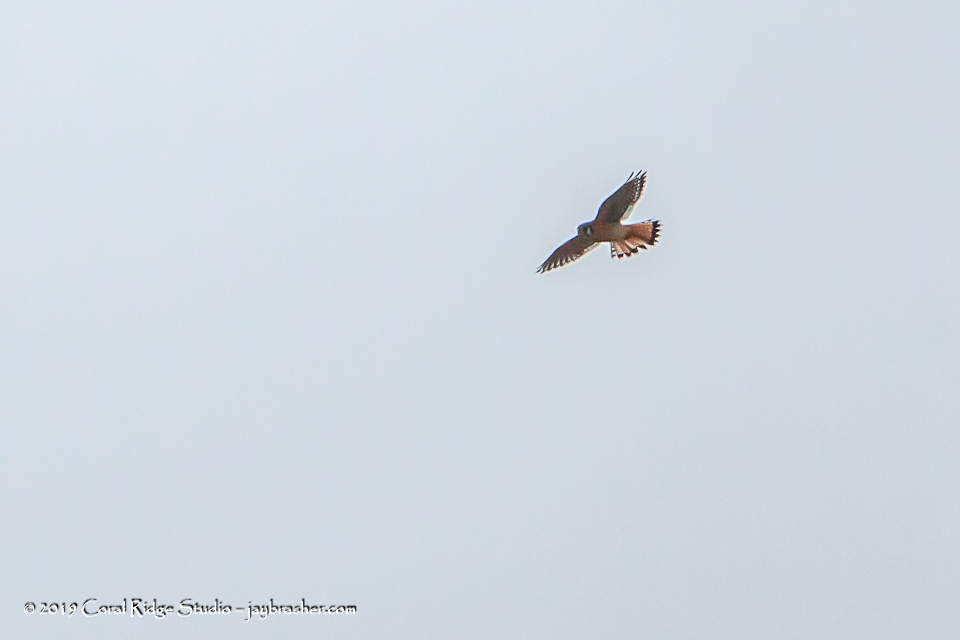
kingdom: Animalia
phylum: Chordata
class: Aves
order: Falconiformes
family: Falconidae
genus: Falco
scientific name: Falco sparverius
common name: American kestrel
